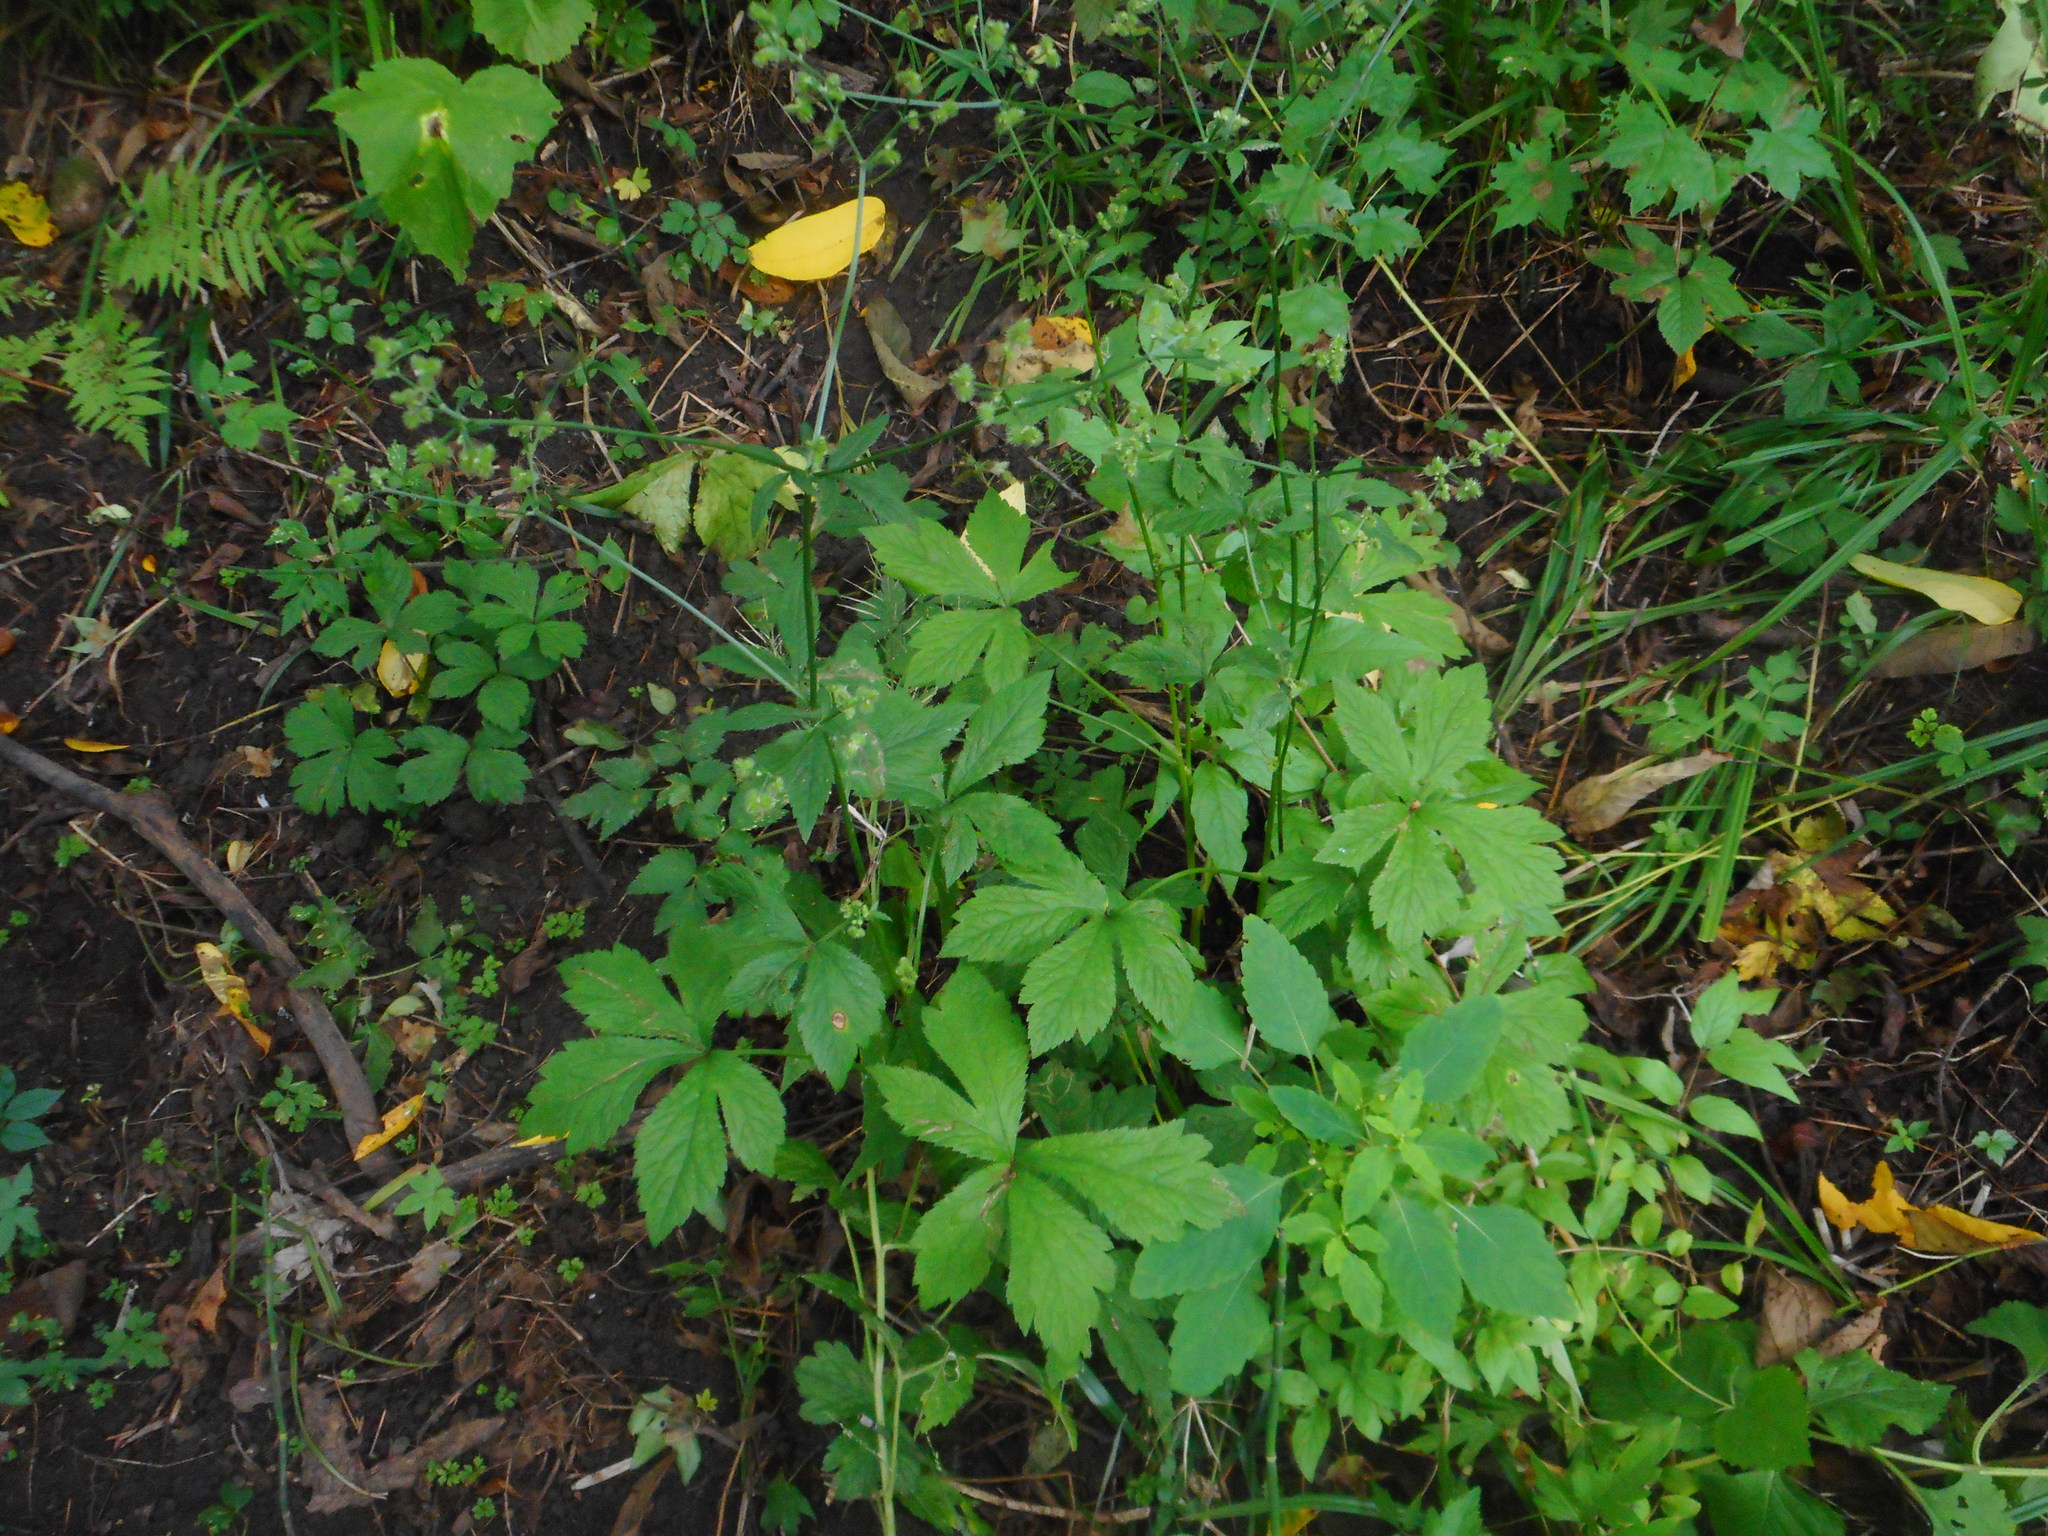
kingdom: Plantae
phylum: Tracheophyta
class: Magnoliopsida
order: Apiales
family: Apiaceae
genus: Sanicula
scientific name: Sanicula chinensis
